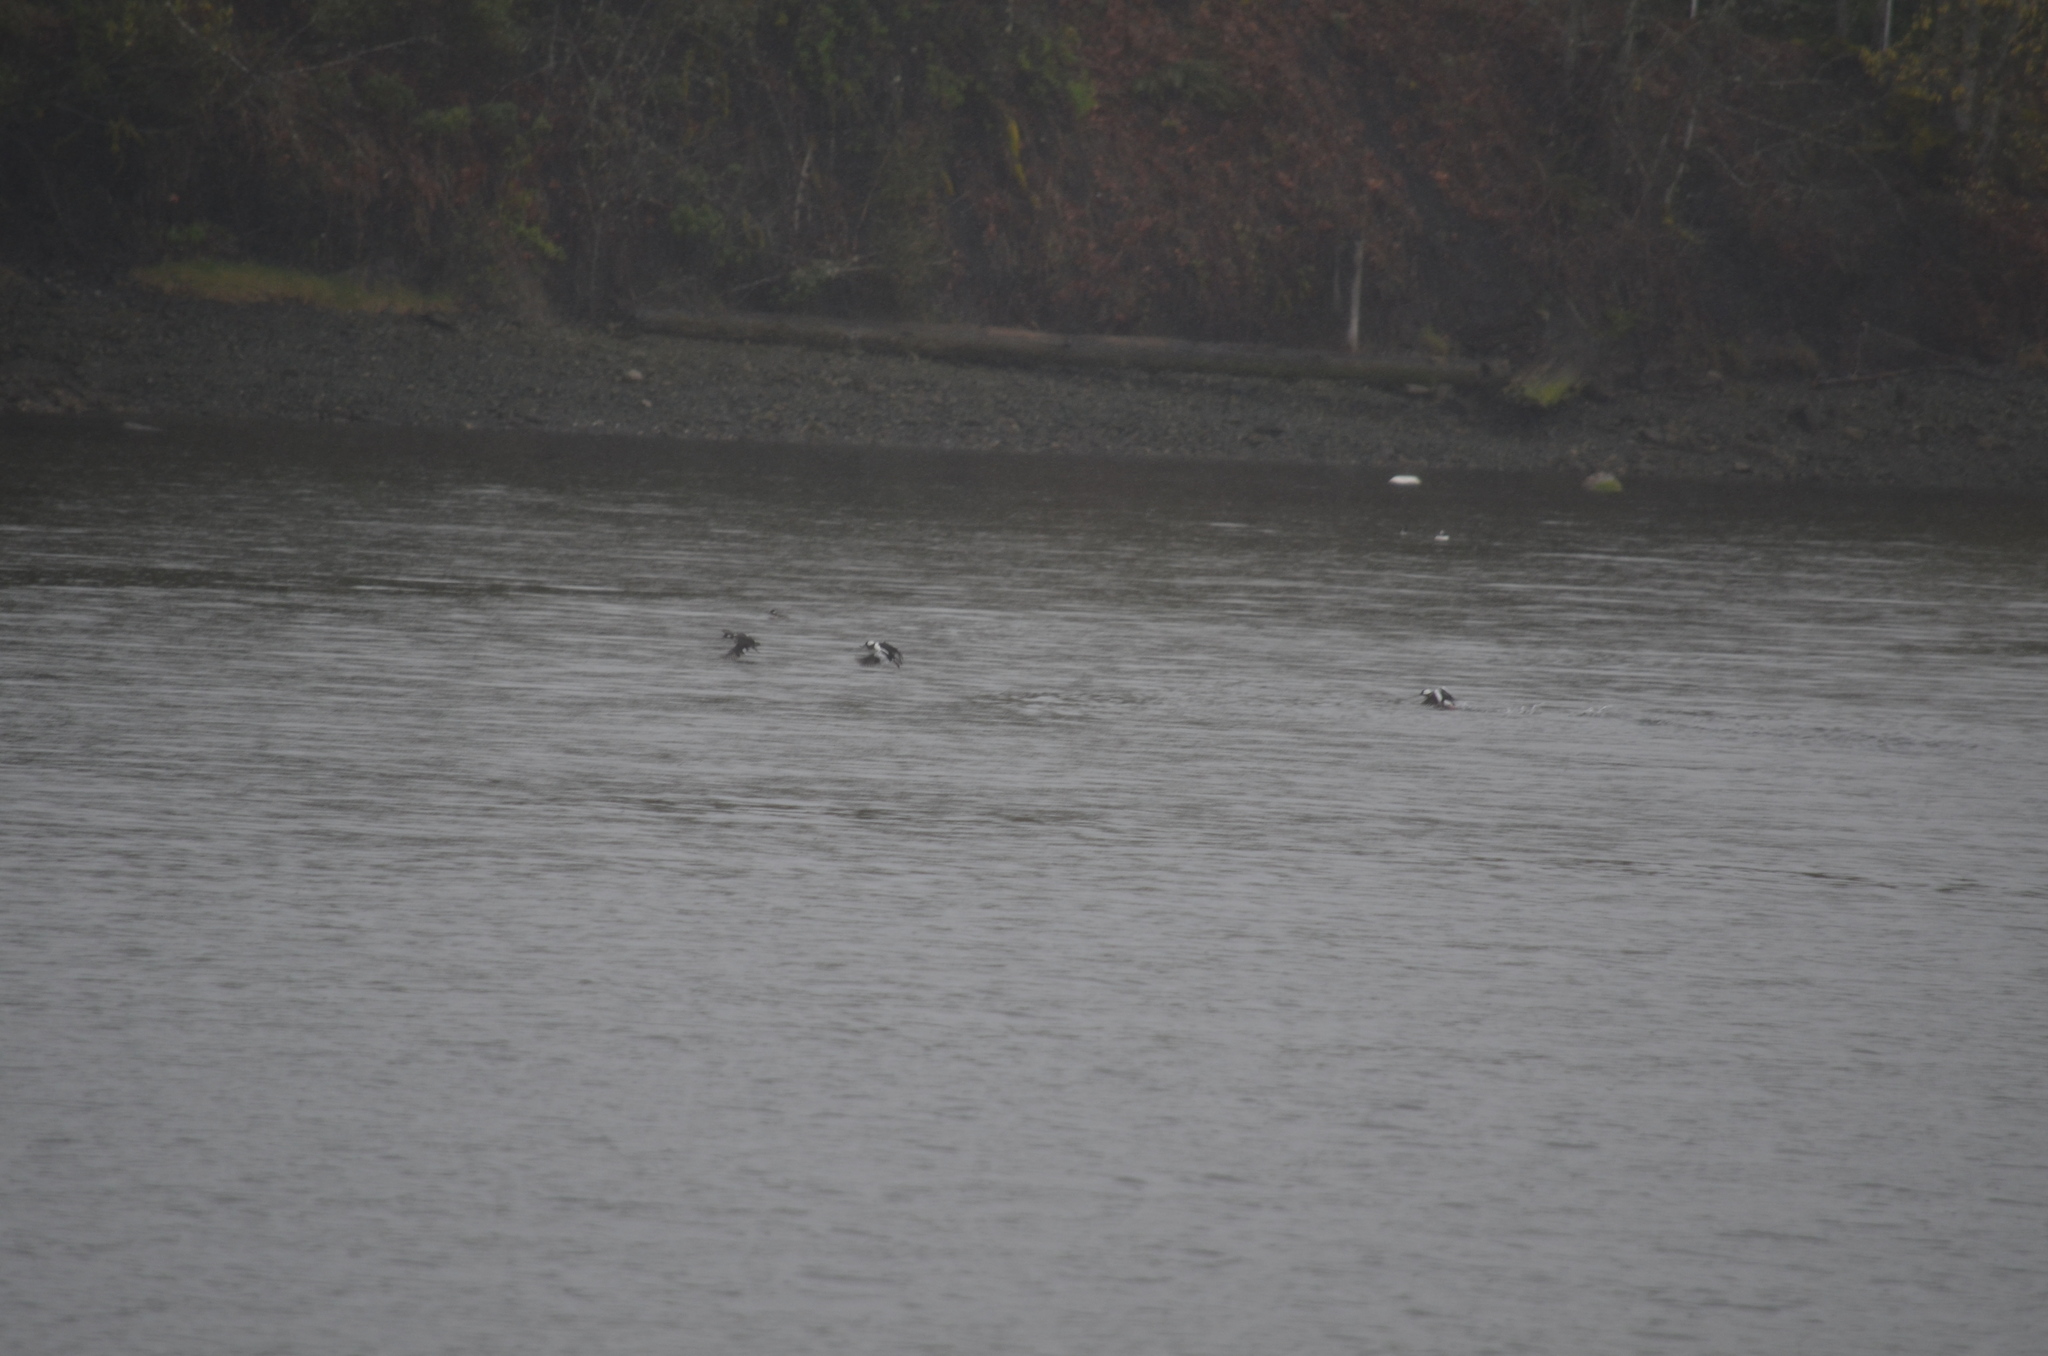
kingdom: Animalia
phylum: Chordata
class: Aves
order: Anseriformes
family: Anatidae
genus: Bucephala
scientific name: Bucephala albeola
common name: Bufflehead
